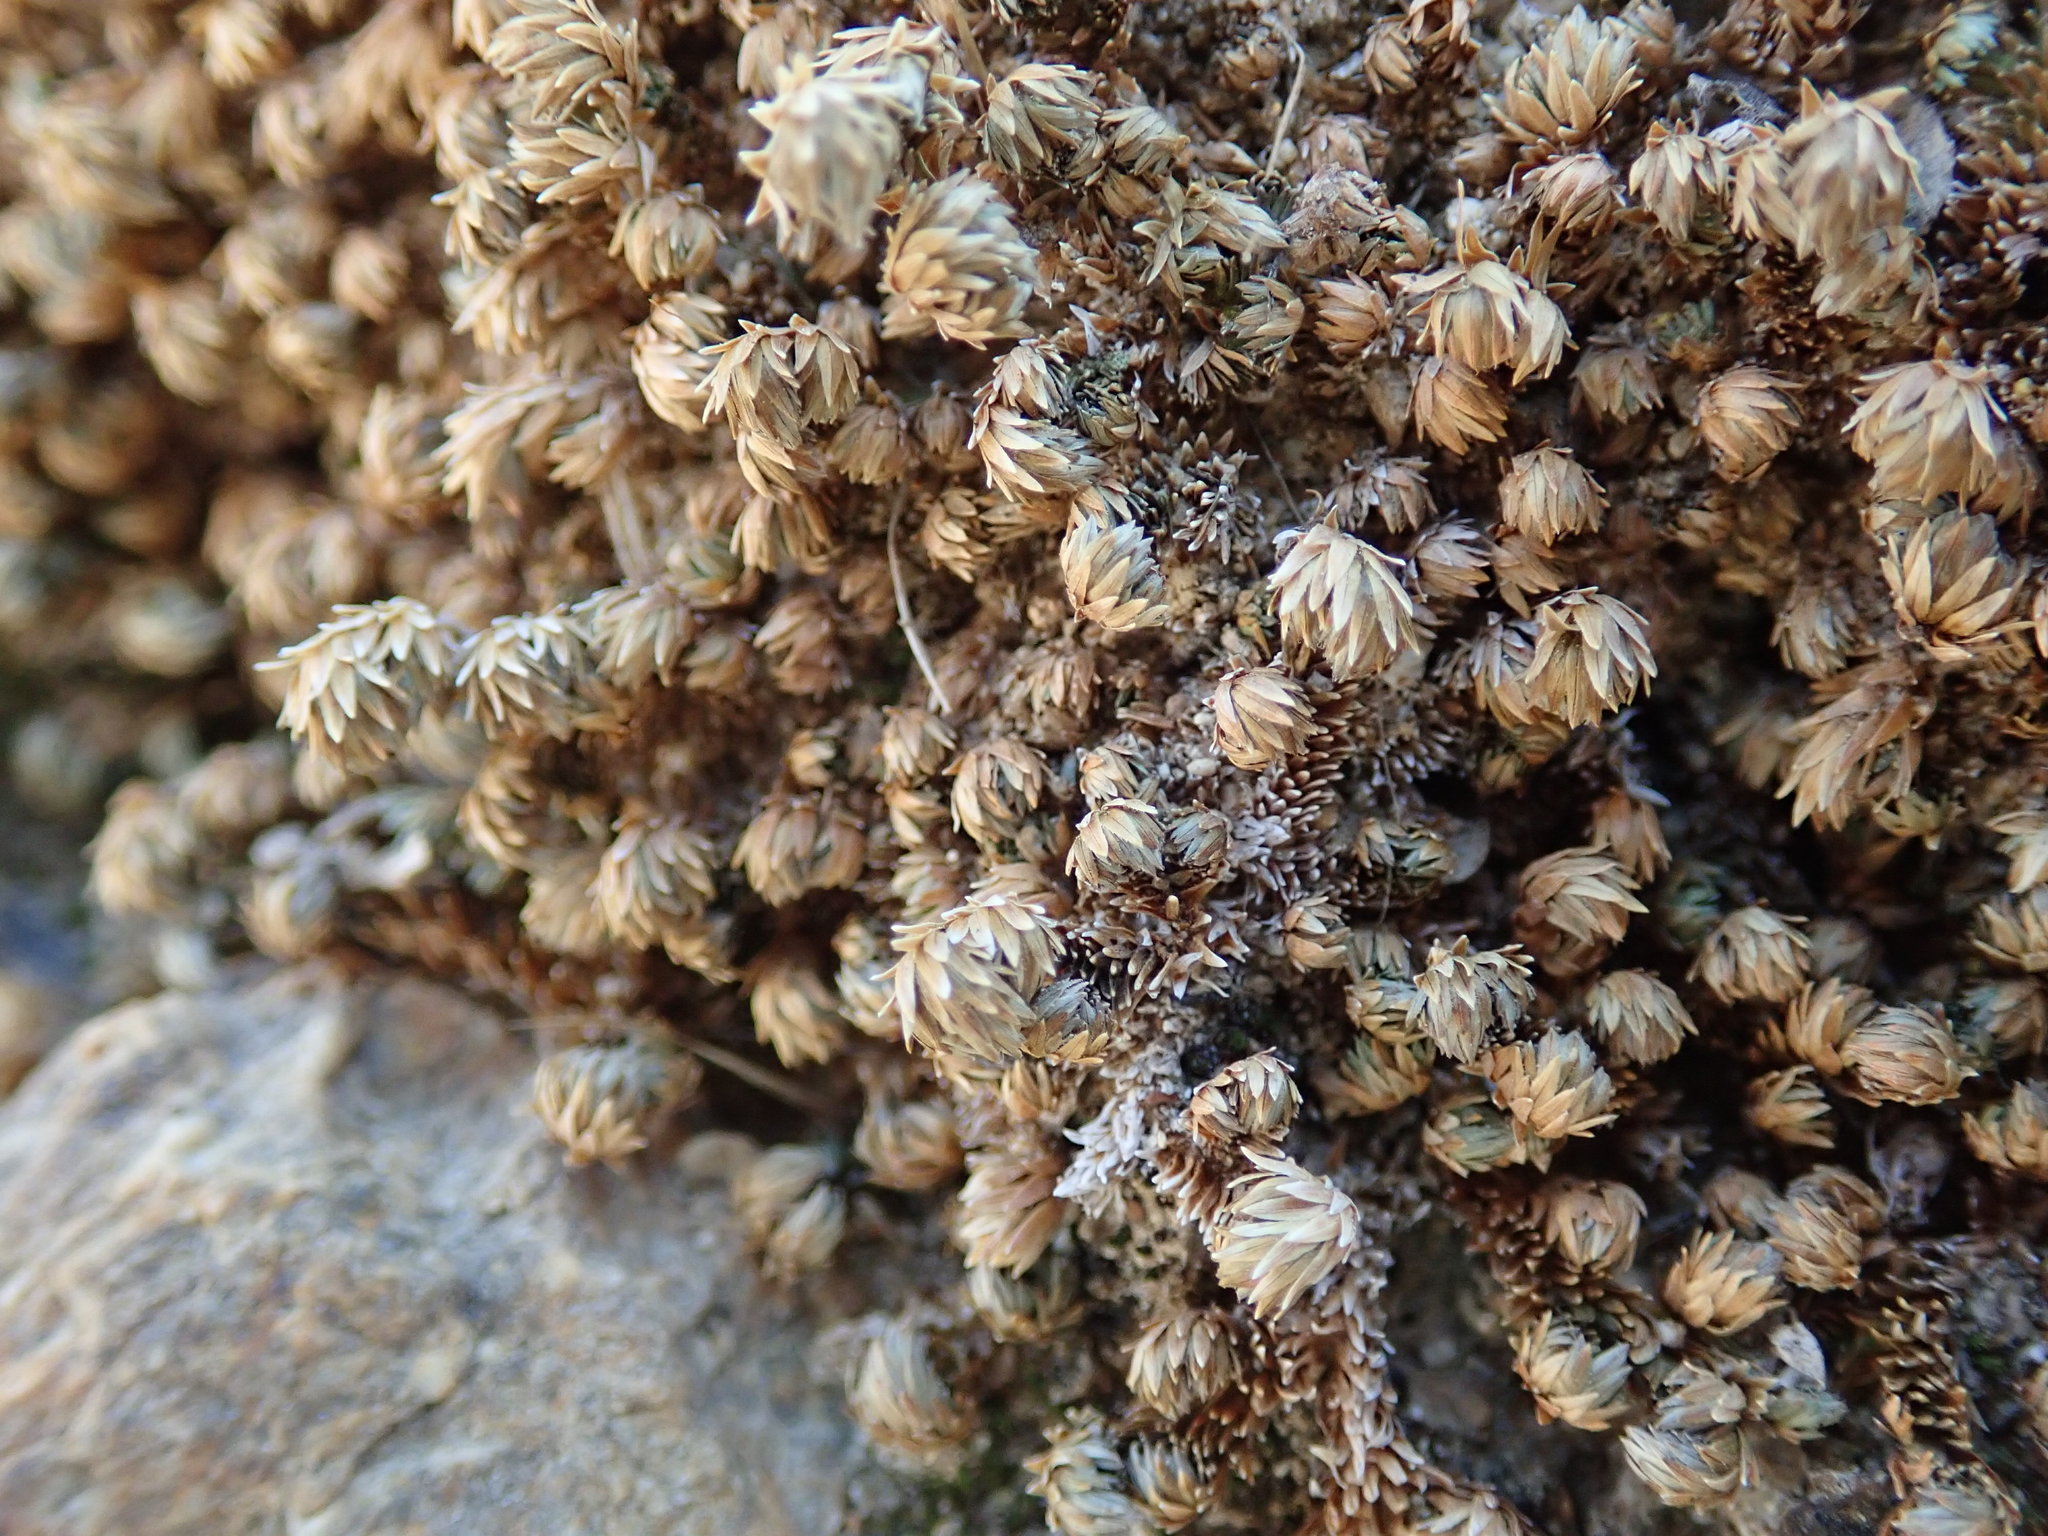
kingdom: Plantae
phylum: Tracheophyta
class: Lycopodiopsida
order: Selaginellales
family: Selaginellaceae
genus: Selaginella
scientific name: Selaginella eremophila
